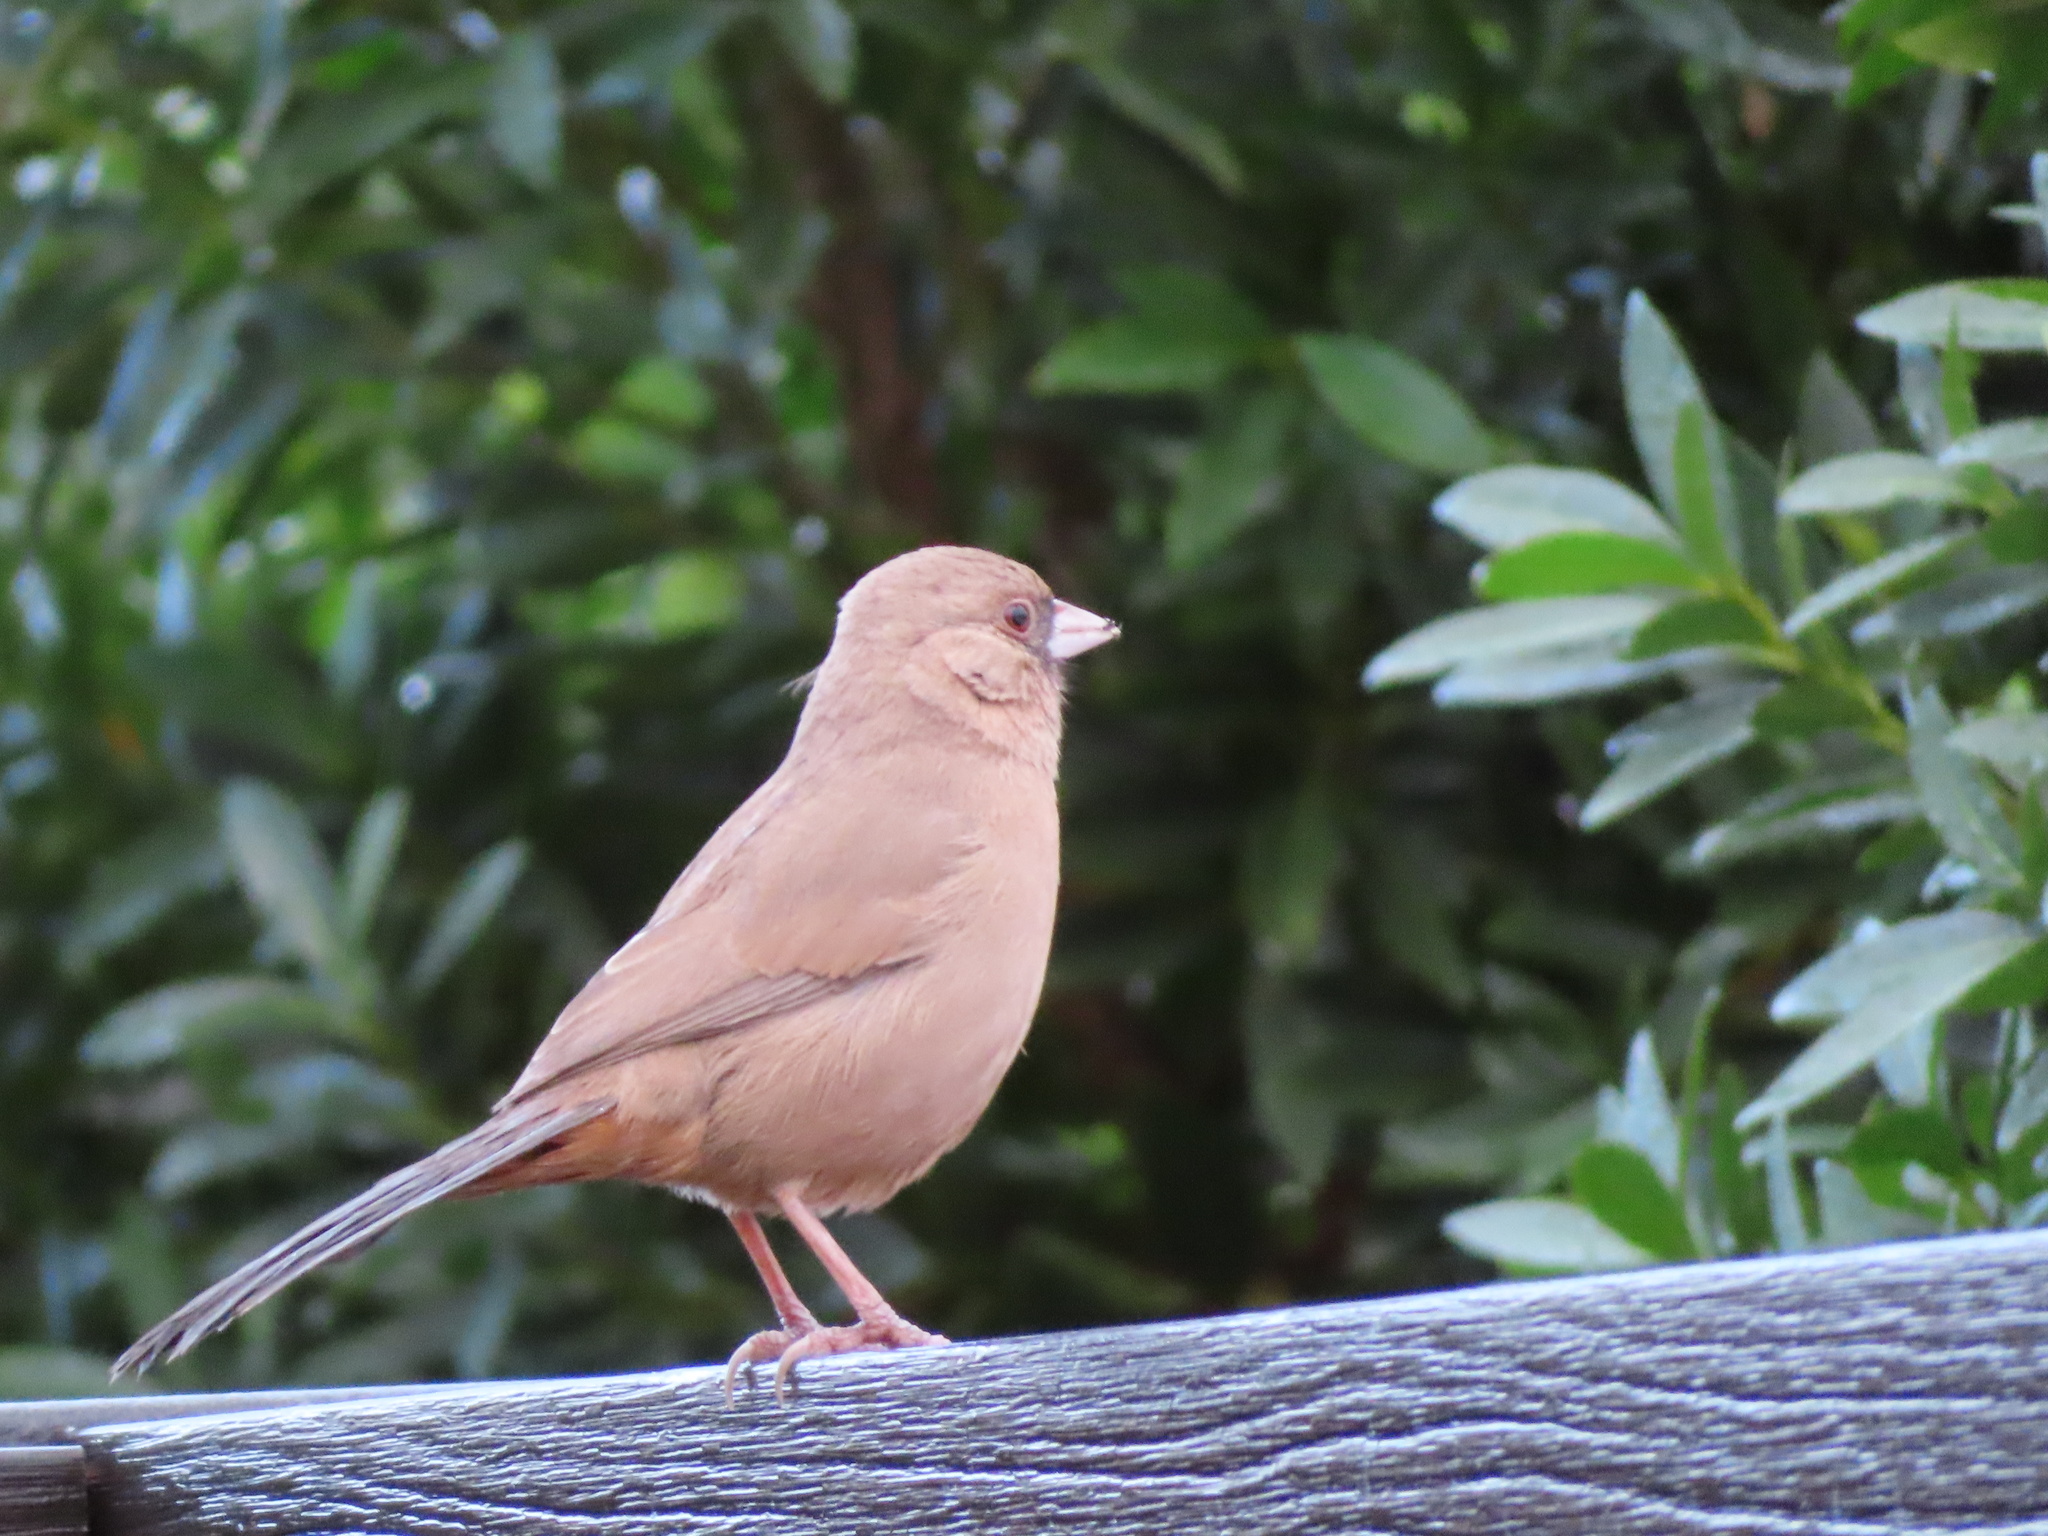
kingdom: Animalia
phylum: Chordata
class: Aves
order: Passeriformes
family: Passerellidae
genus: Melozone
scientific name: Melozone aberti
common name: Abert's towhee
